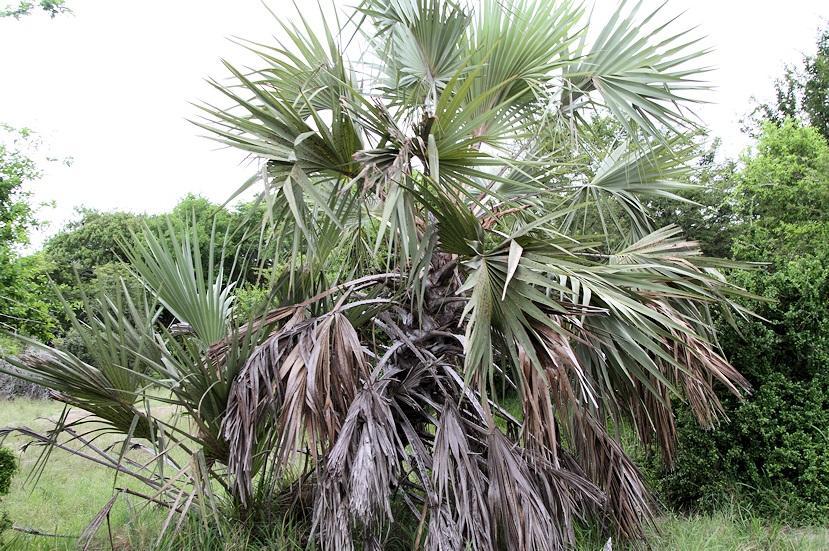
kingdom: Plantae
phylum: Tracheophyta
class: Liliopsida
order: Arecales
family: Arecaceae
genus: Hyphaene
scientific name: Hyphaene coriacea
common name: Ilala palm
